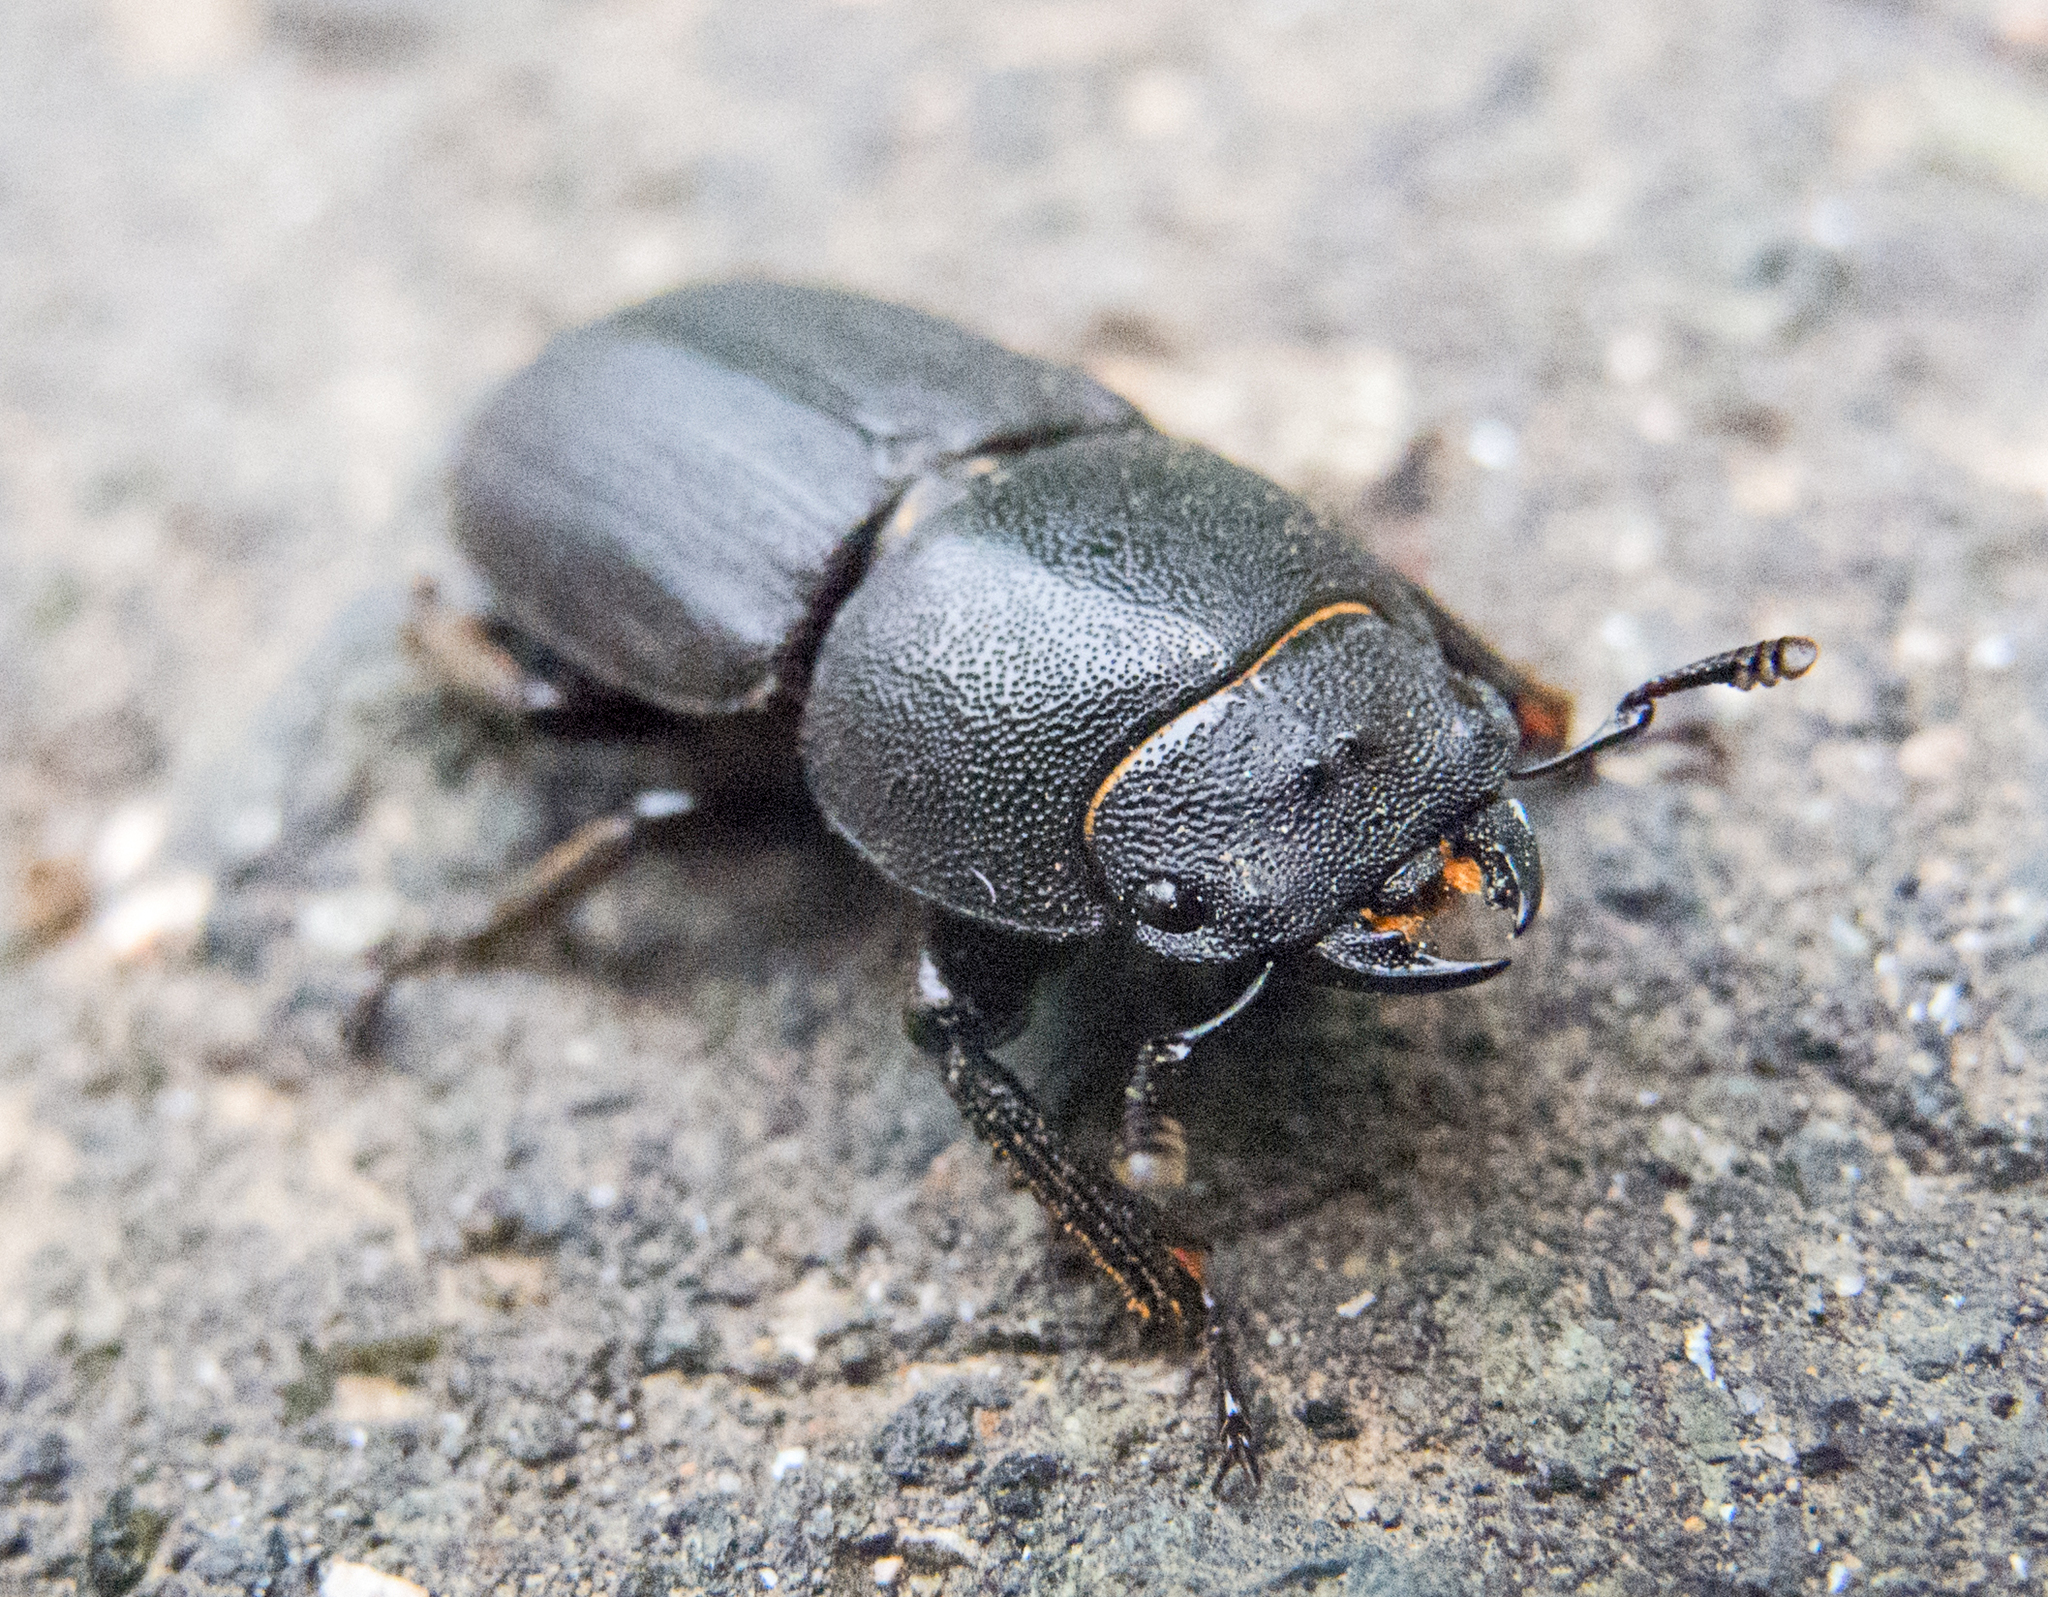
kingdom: Animalia
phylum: Arthropoda
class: Insecta
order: Coleoptera
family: Lucanidae
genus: Dorcus
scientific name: Dorcus parallelipipedus
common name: Lesser stag beetle
